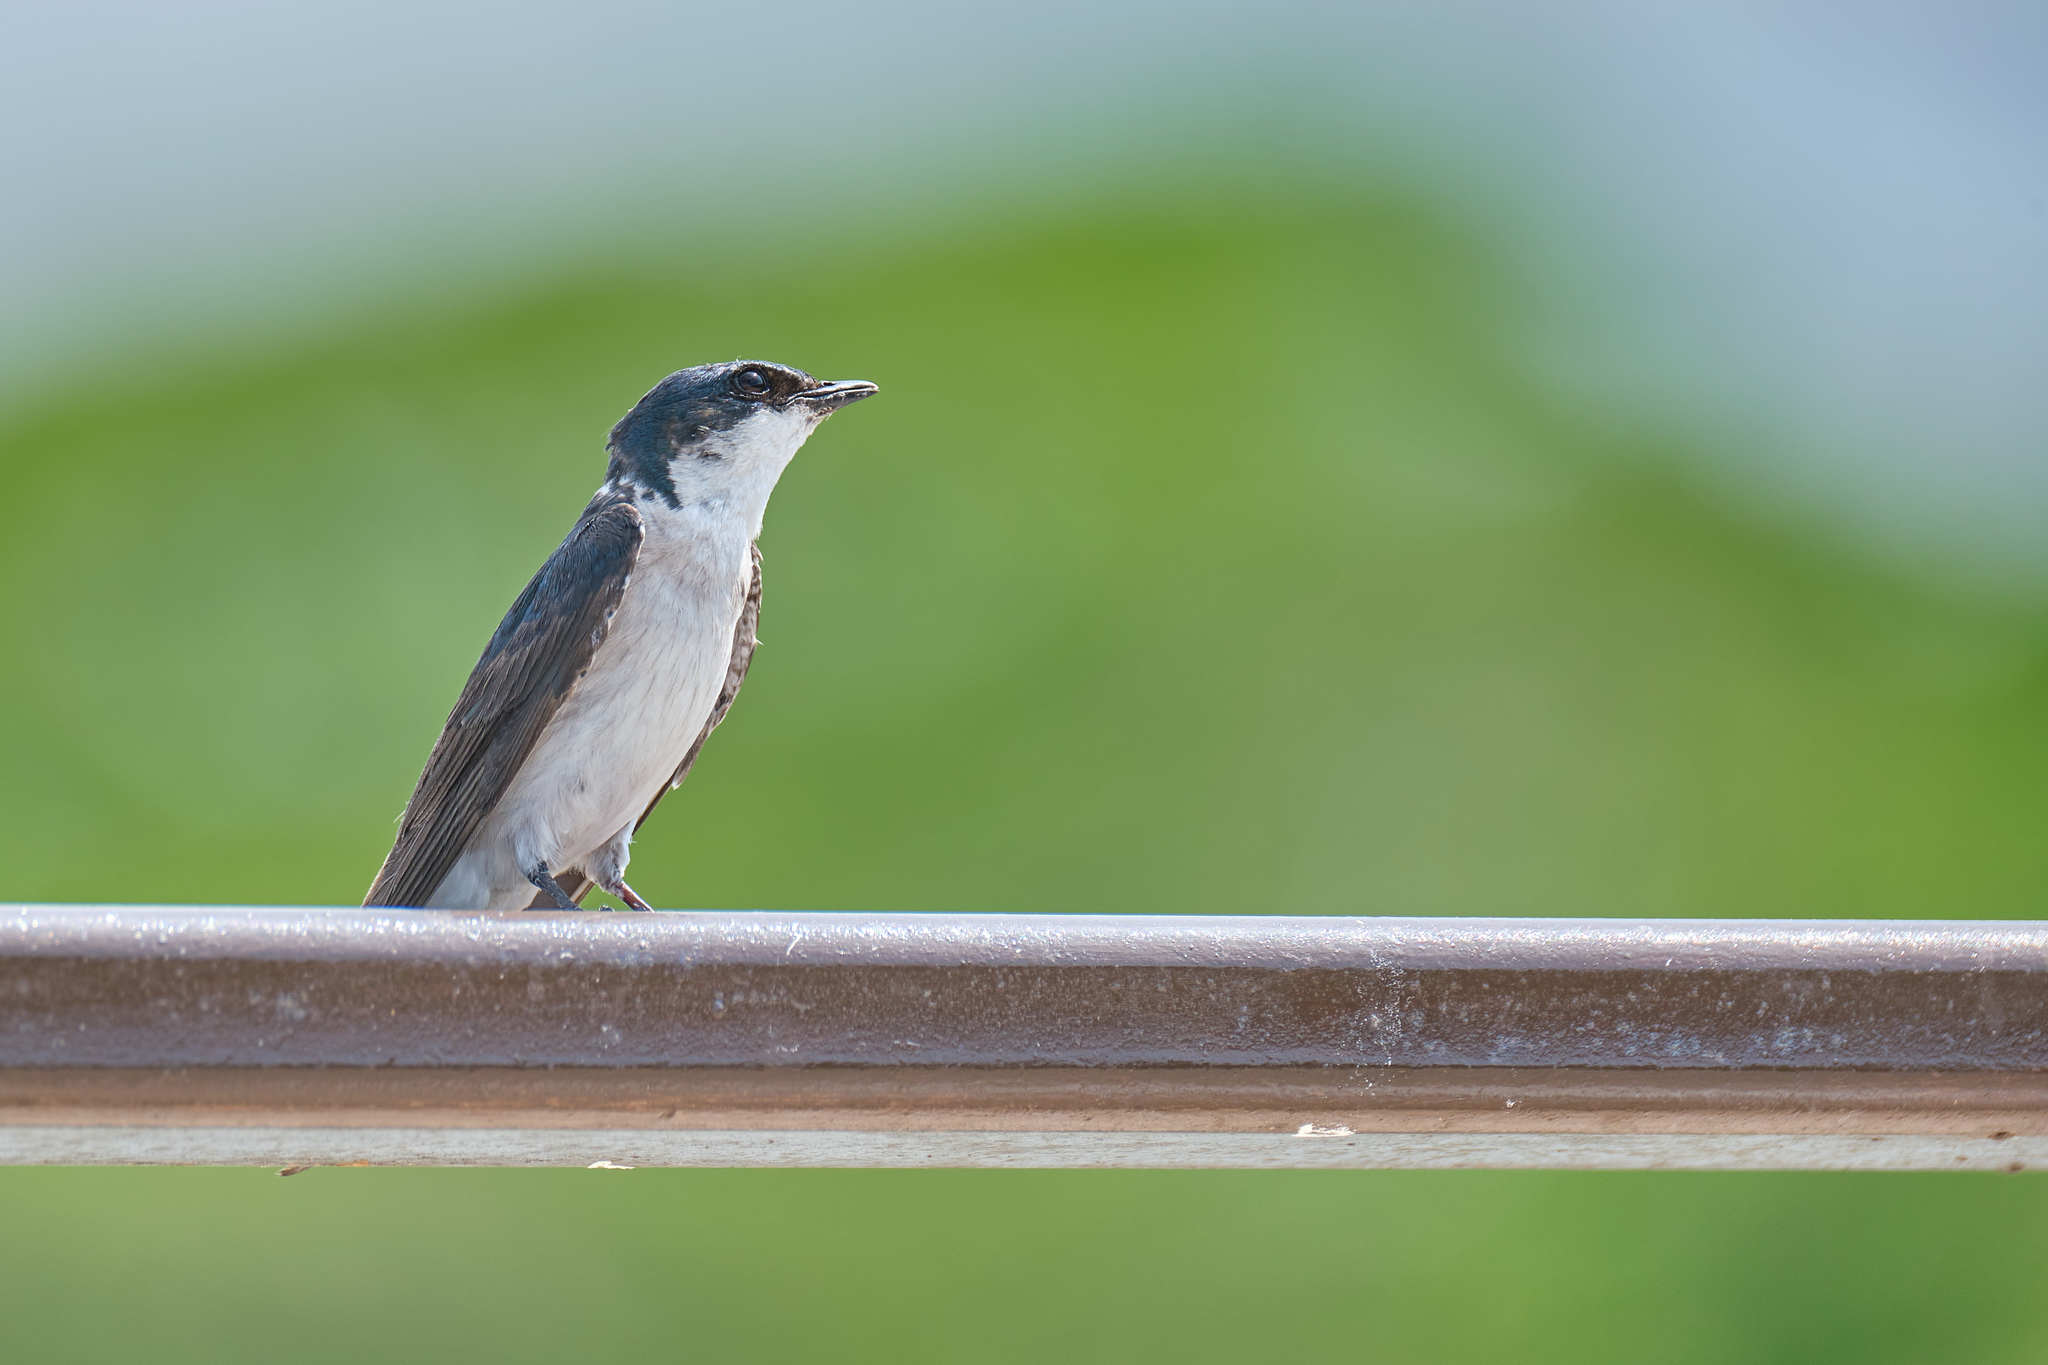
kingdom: Animalia
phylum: Chordata
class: Aves
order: Passeriformes
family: Hirundinidae
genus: Tachycineta
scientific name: Tachycineta albilinea
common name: Mangrove swallow
